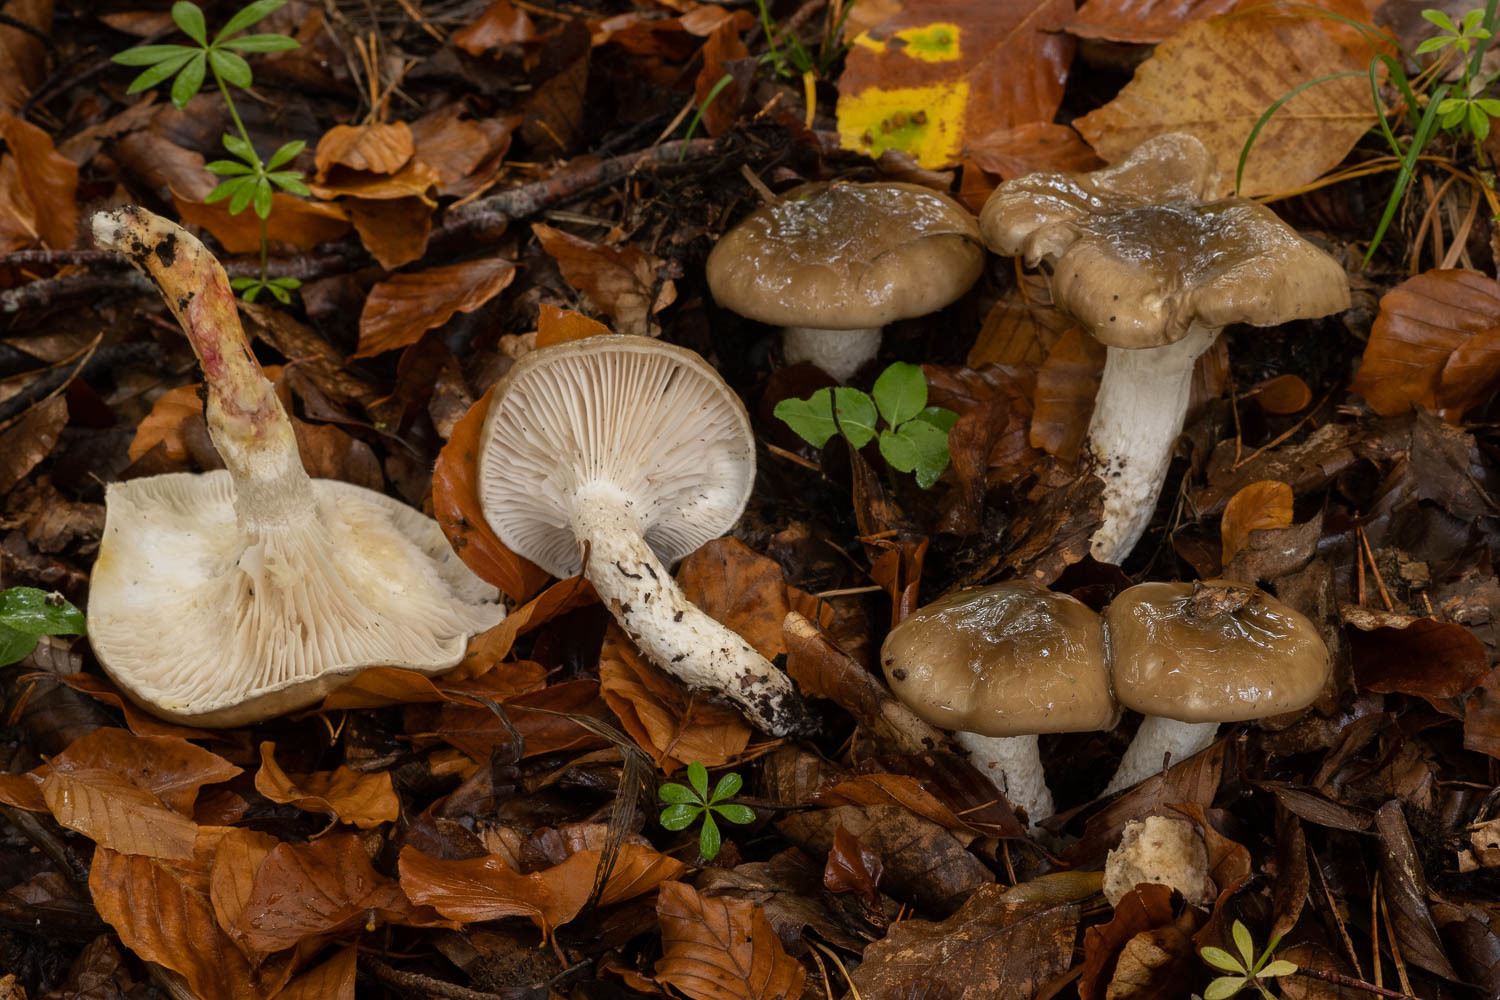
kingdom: Fungi
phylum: Basidiomycota
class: Agaricomycetes
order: Agaricales
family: Hygrophoraceae
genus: Hygrophorus
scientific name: Hygrophorus limacinus
